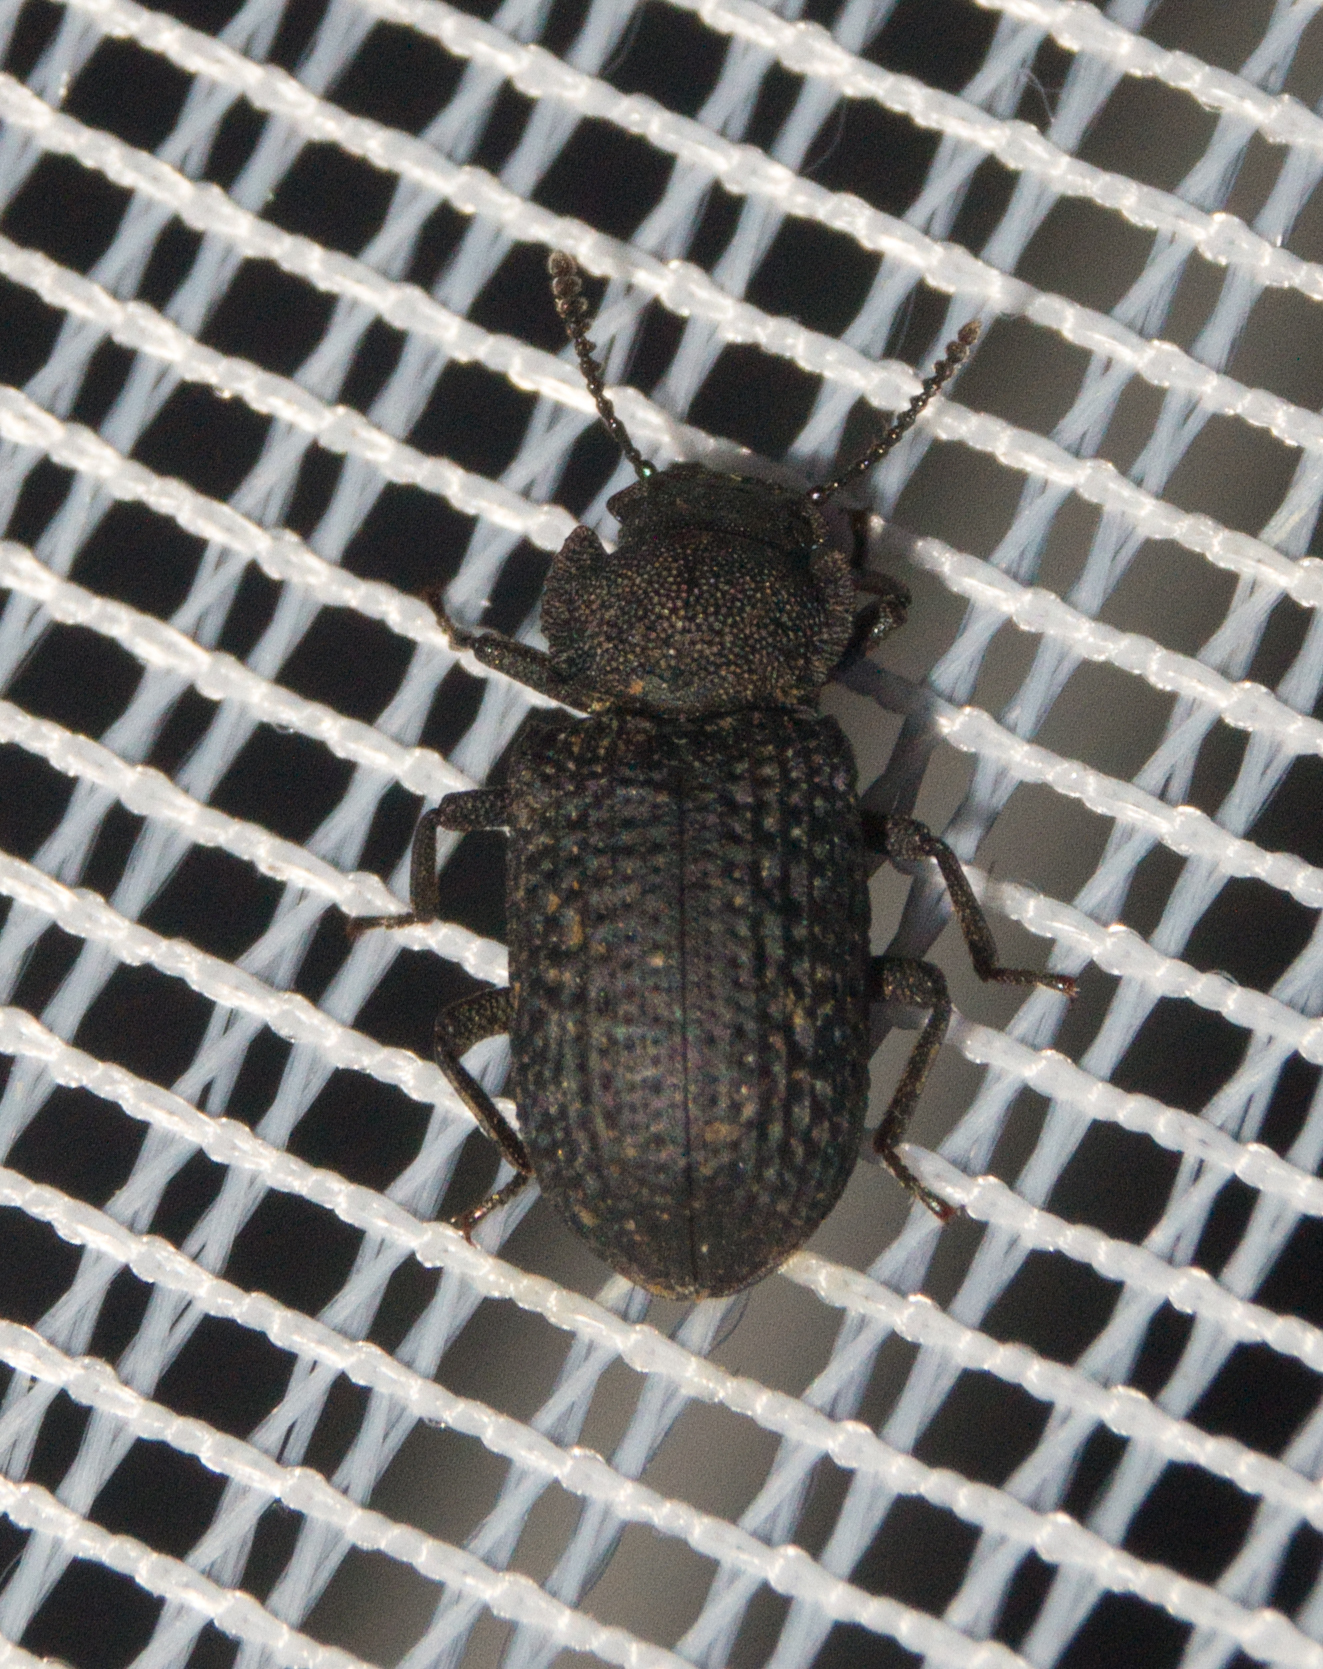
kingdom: Animalia
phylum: Arthropoda
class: Insecta
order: Coleoptera
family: Tenebrionidae
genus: Bolitophagus
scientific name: Bolitophagus reticulatus
